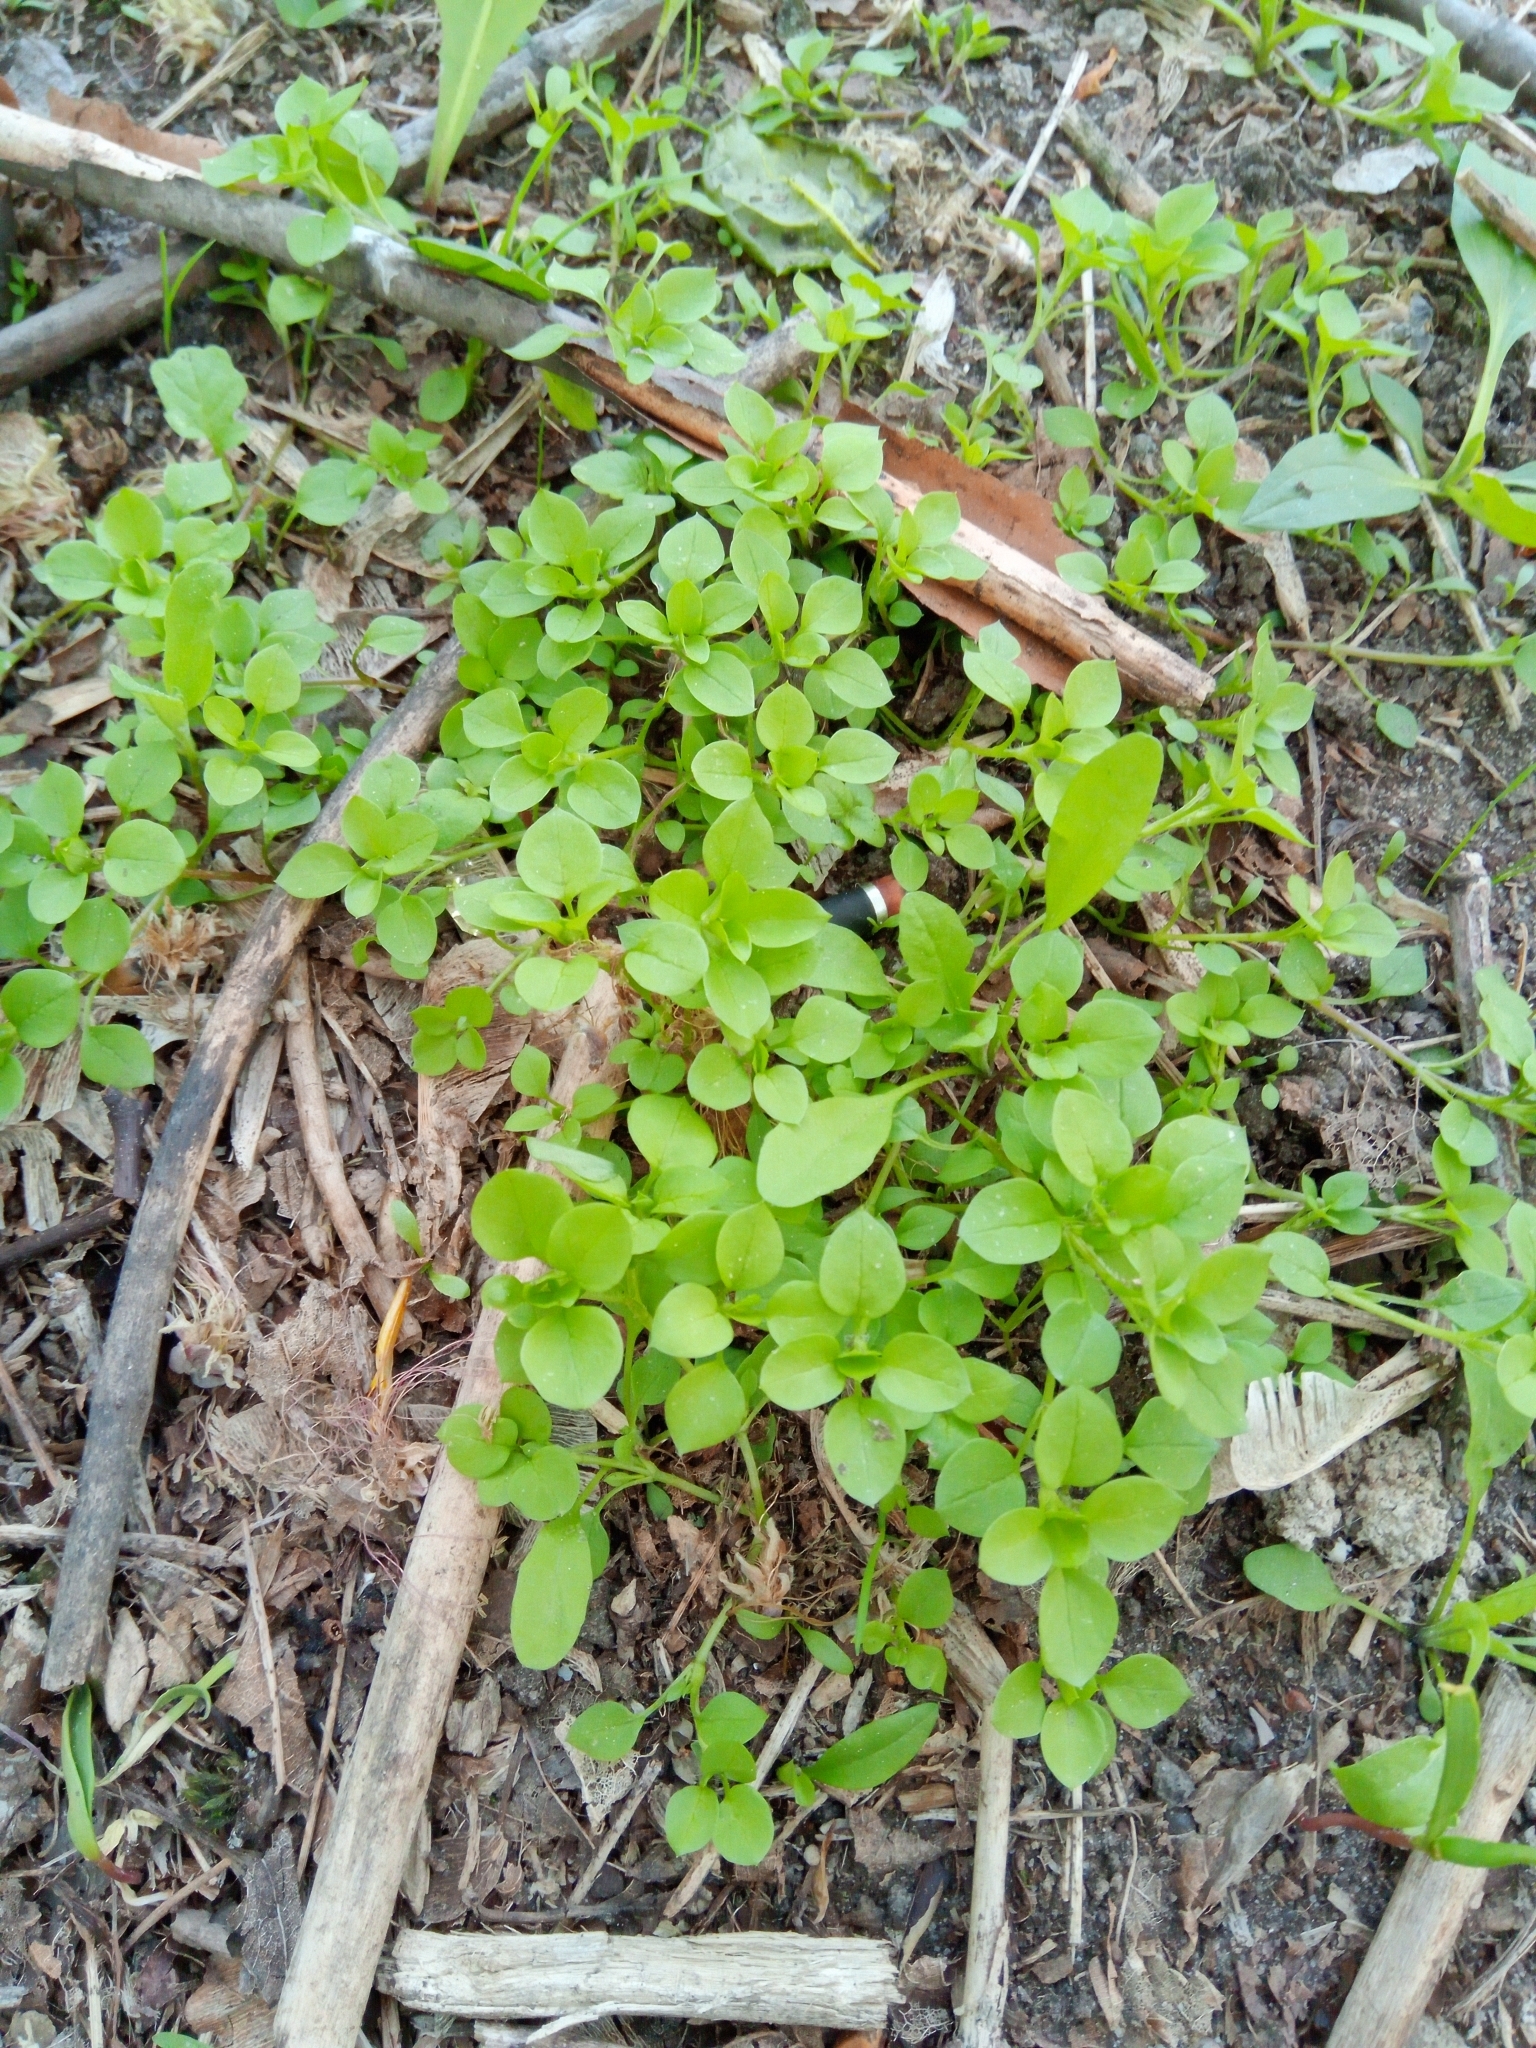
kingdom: Plantae
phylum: Tracheophyta
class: Magnoliopsida
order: Caryophyllales
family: Caryophyllaceae
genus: Stellaria
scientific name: Stellaria media
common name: Common chickweed
